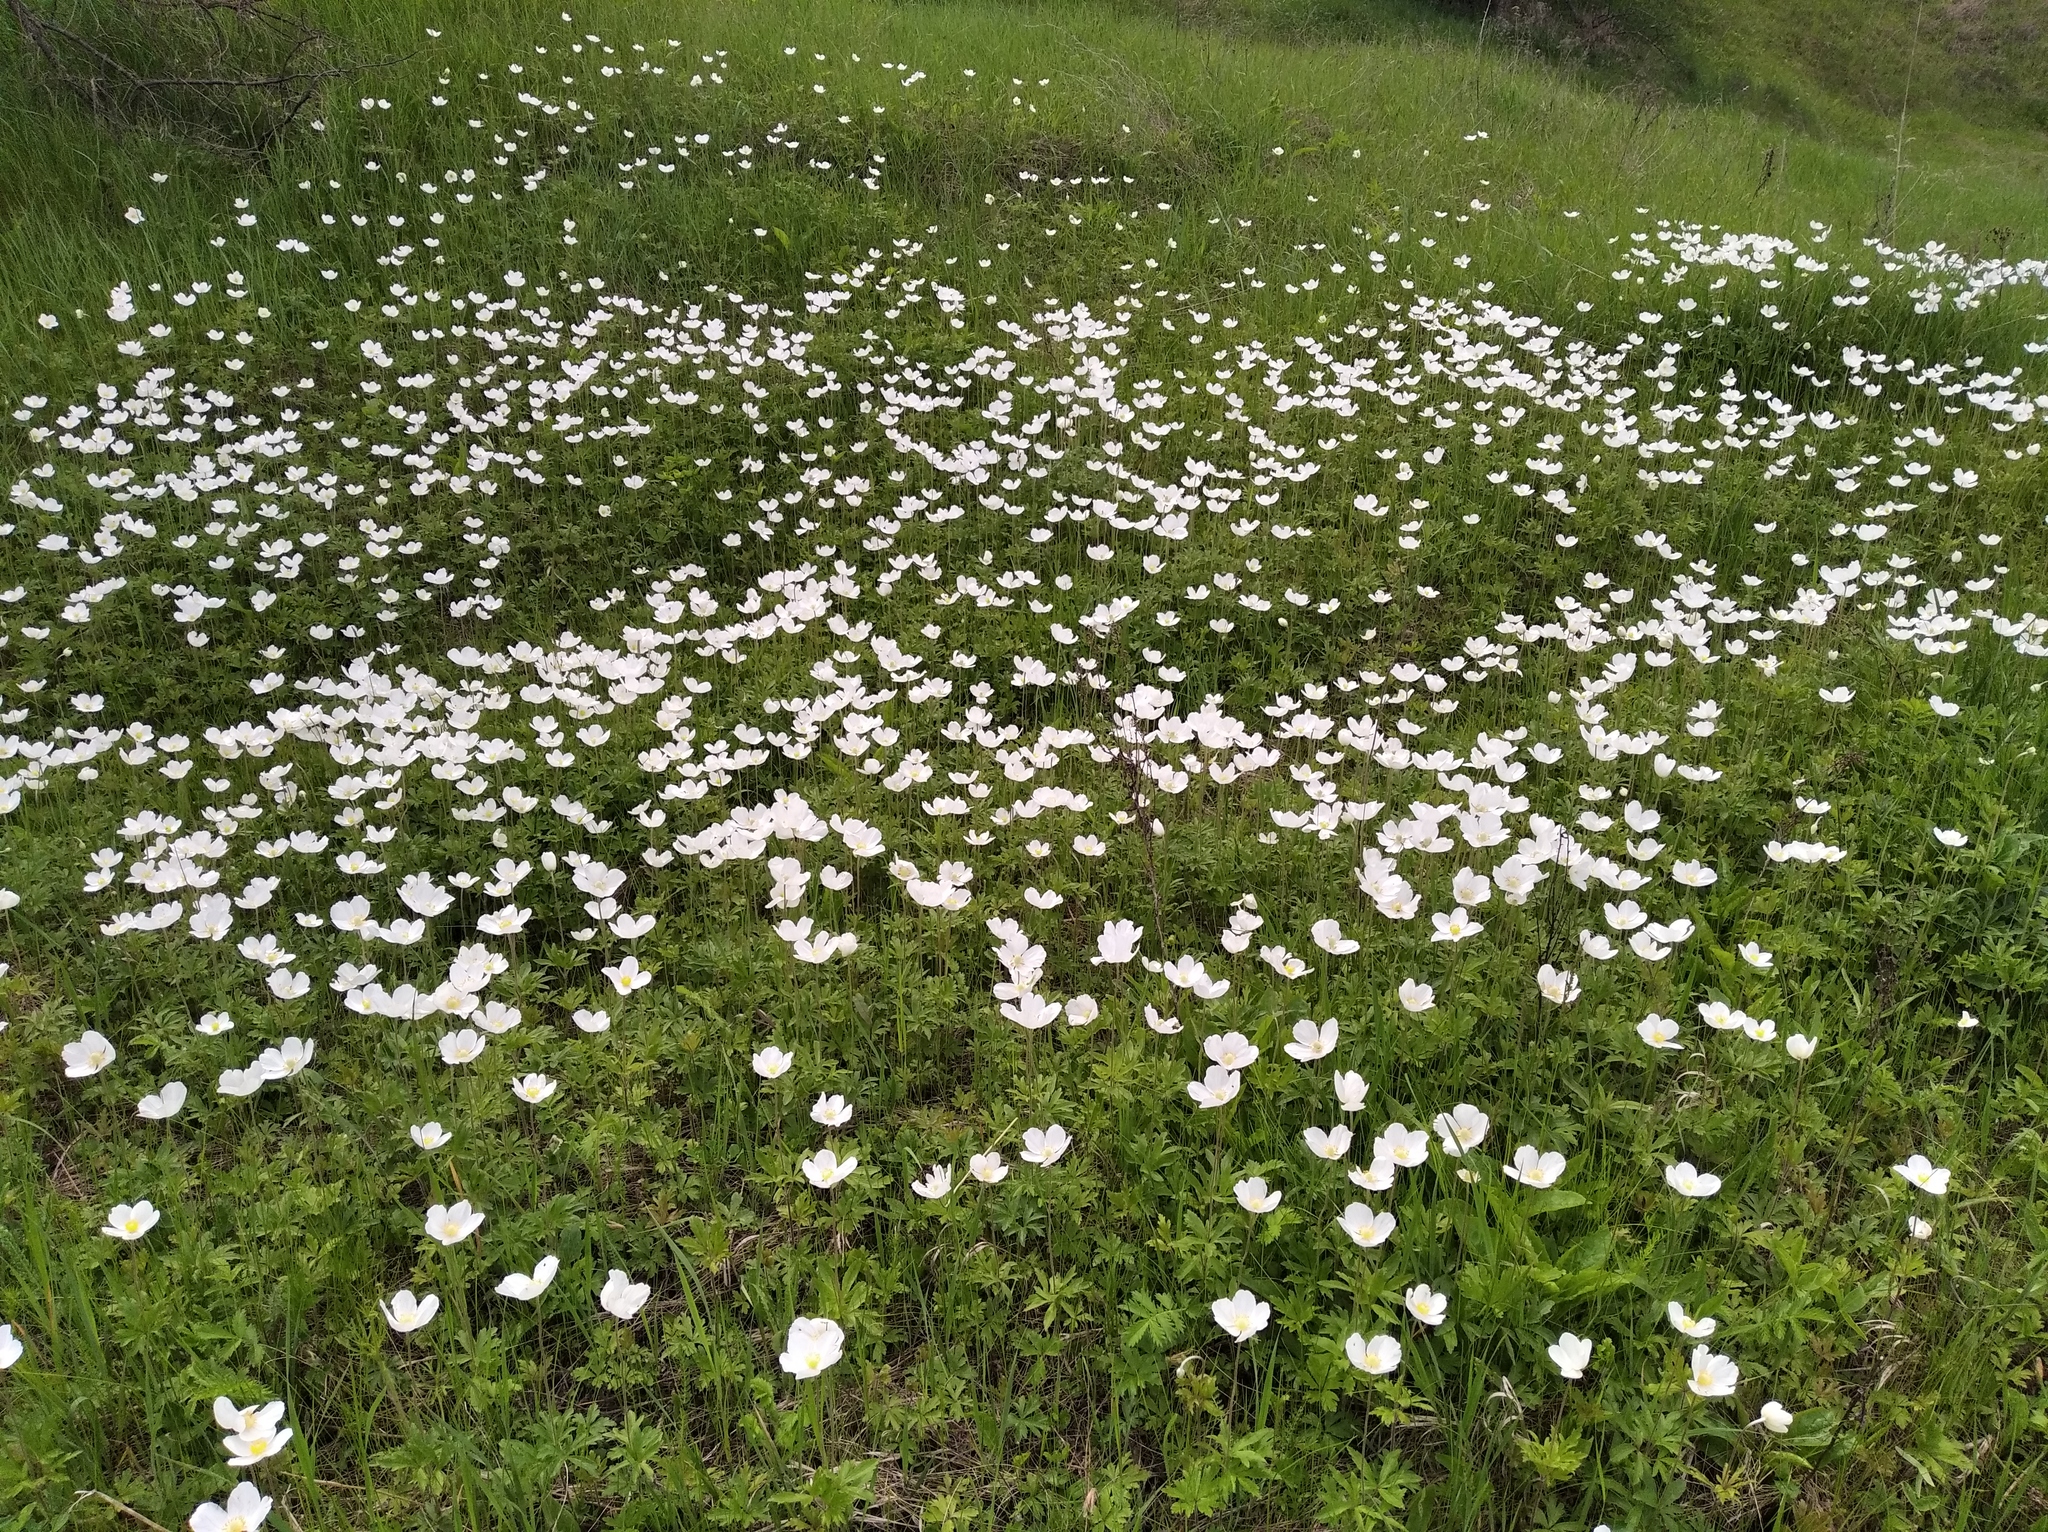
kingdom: Plantae
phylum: Tracheophyta
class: Magnoliopsida
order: Ranunculales
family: Ranunculaceae
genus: Anemone
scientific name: Anemone sylvestris
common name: Snowdrop anemone
